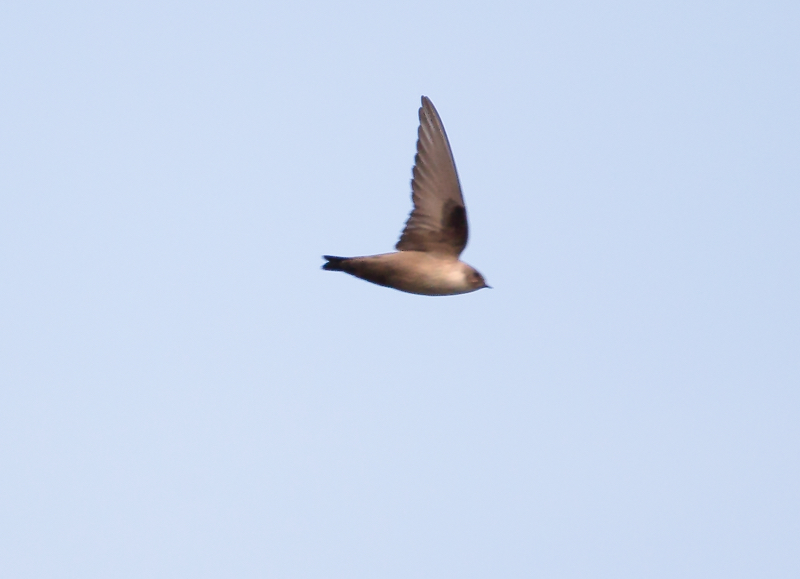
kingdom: Animalia
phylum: Chordata
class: Aves
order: Passeriformes
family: Hirundinidae
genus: Ptyonoprogne
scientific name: Ptyonoprogne rupestris
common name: Eurasian crag martin
